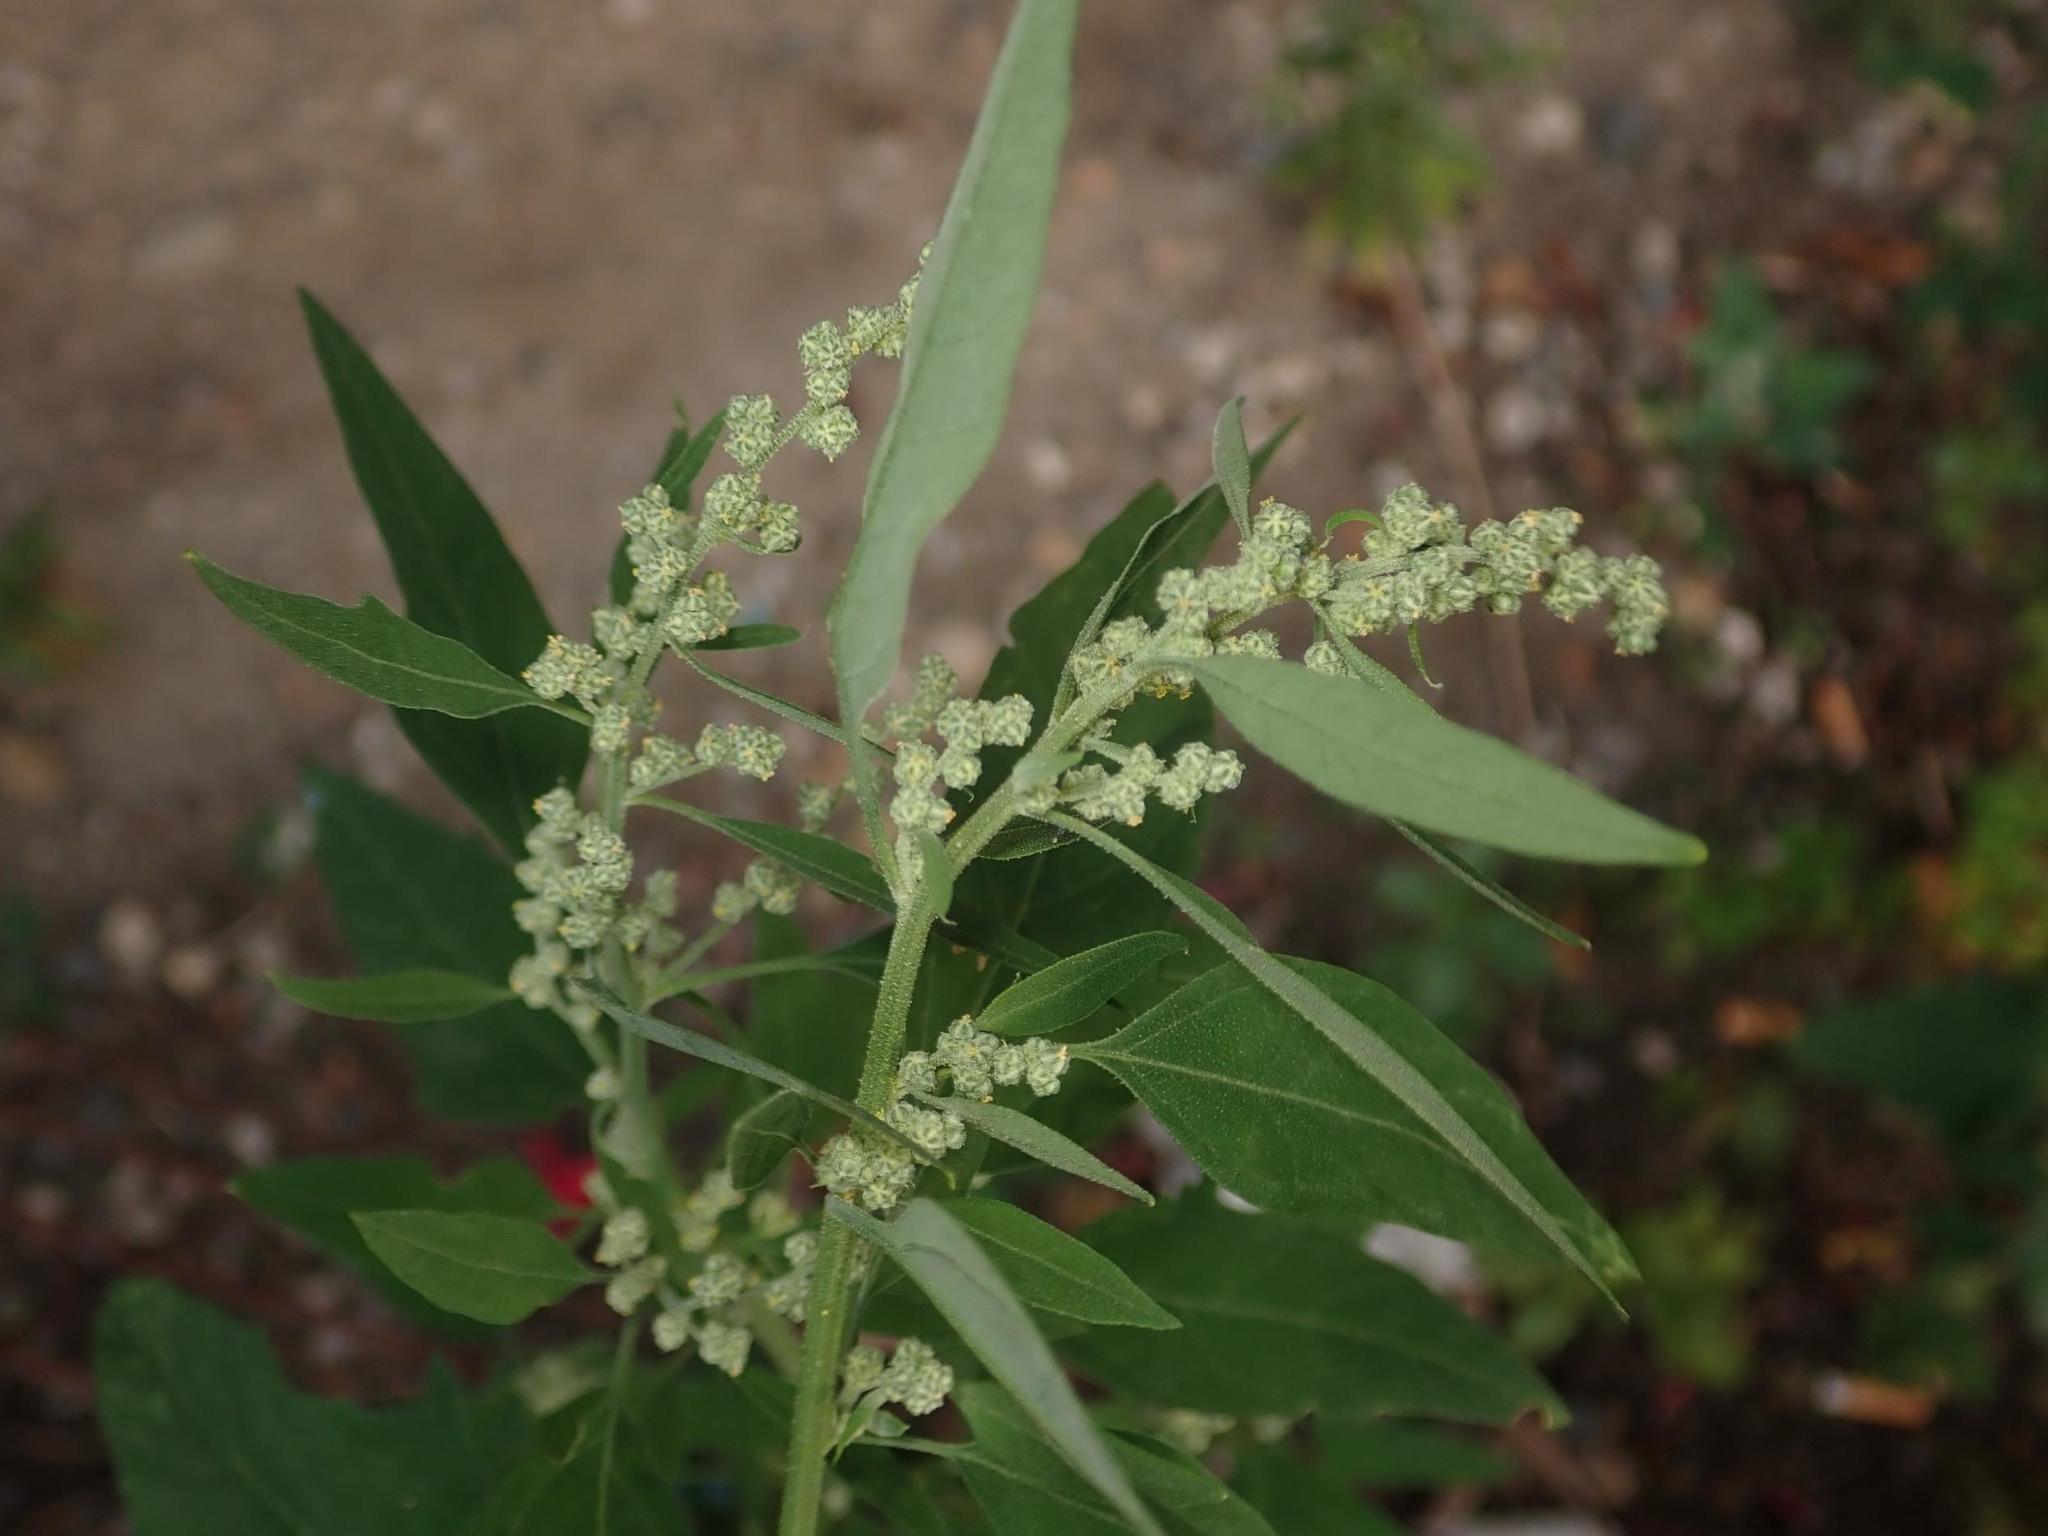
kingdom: Plantae
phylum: Tracheophyta
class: Magnoliopsida
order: Caryophyllales
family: Amaranthaceae
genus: Chenopodium
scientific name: Chenopodium album
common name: Fat-hen
